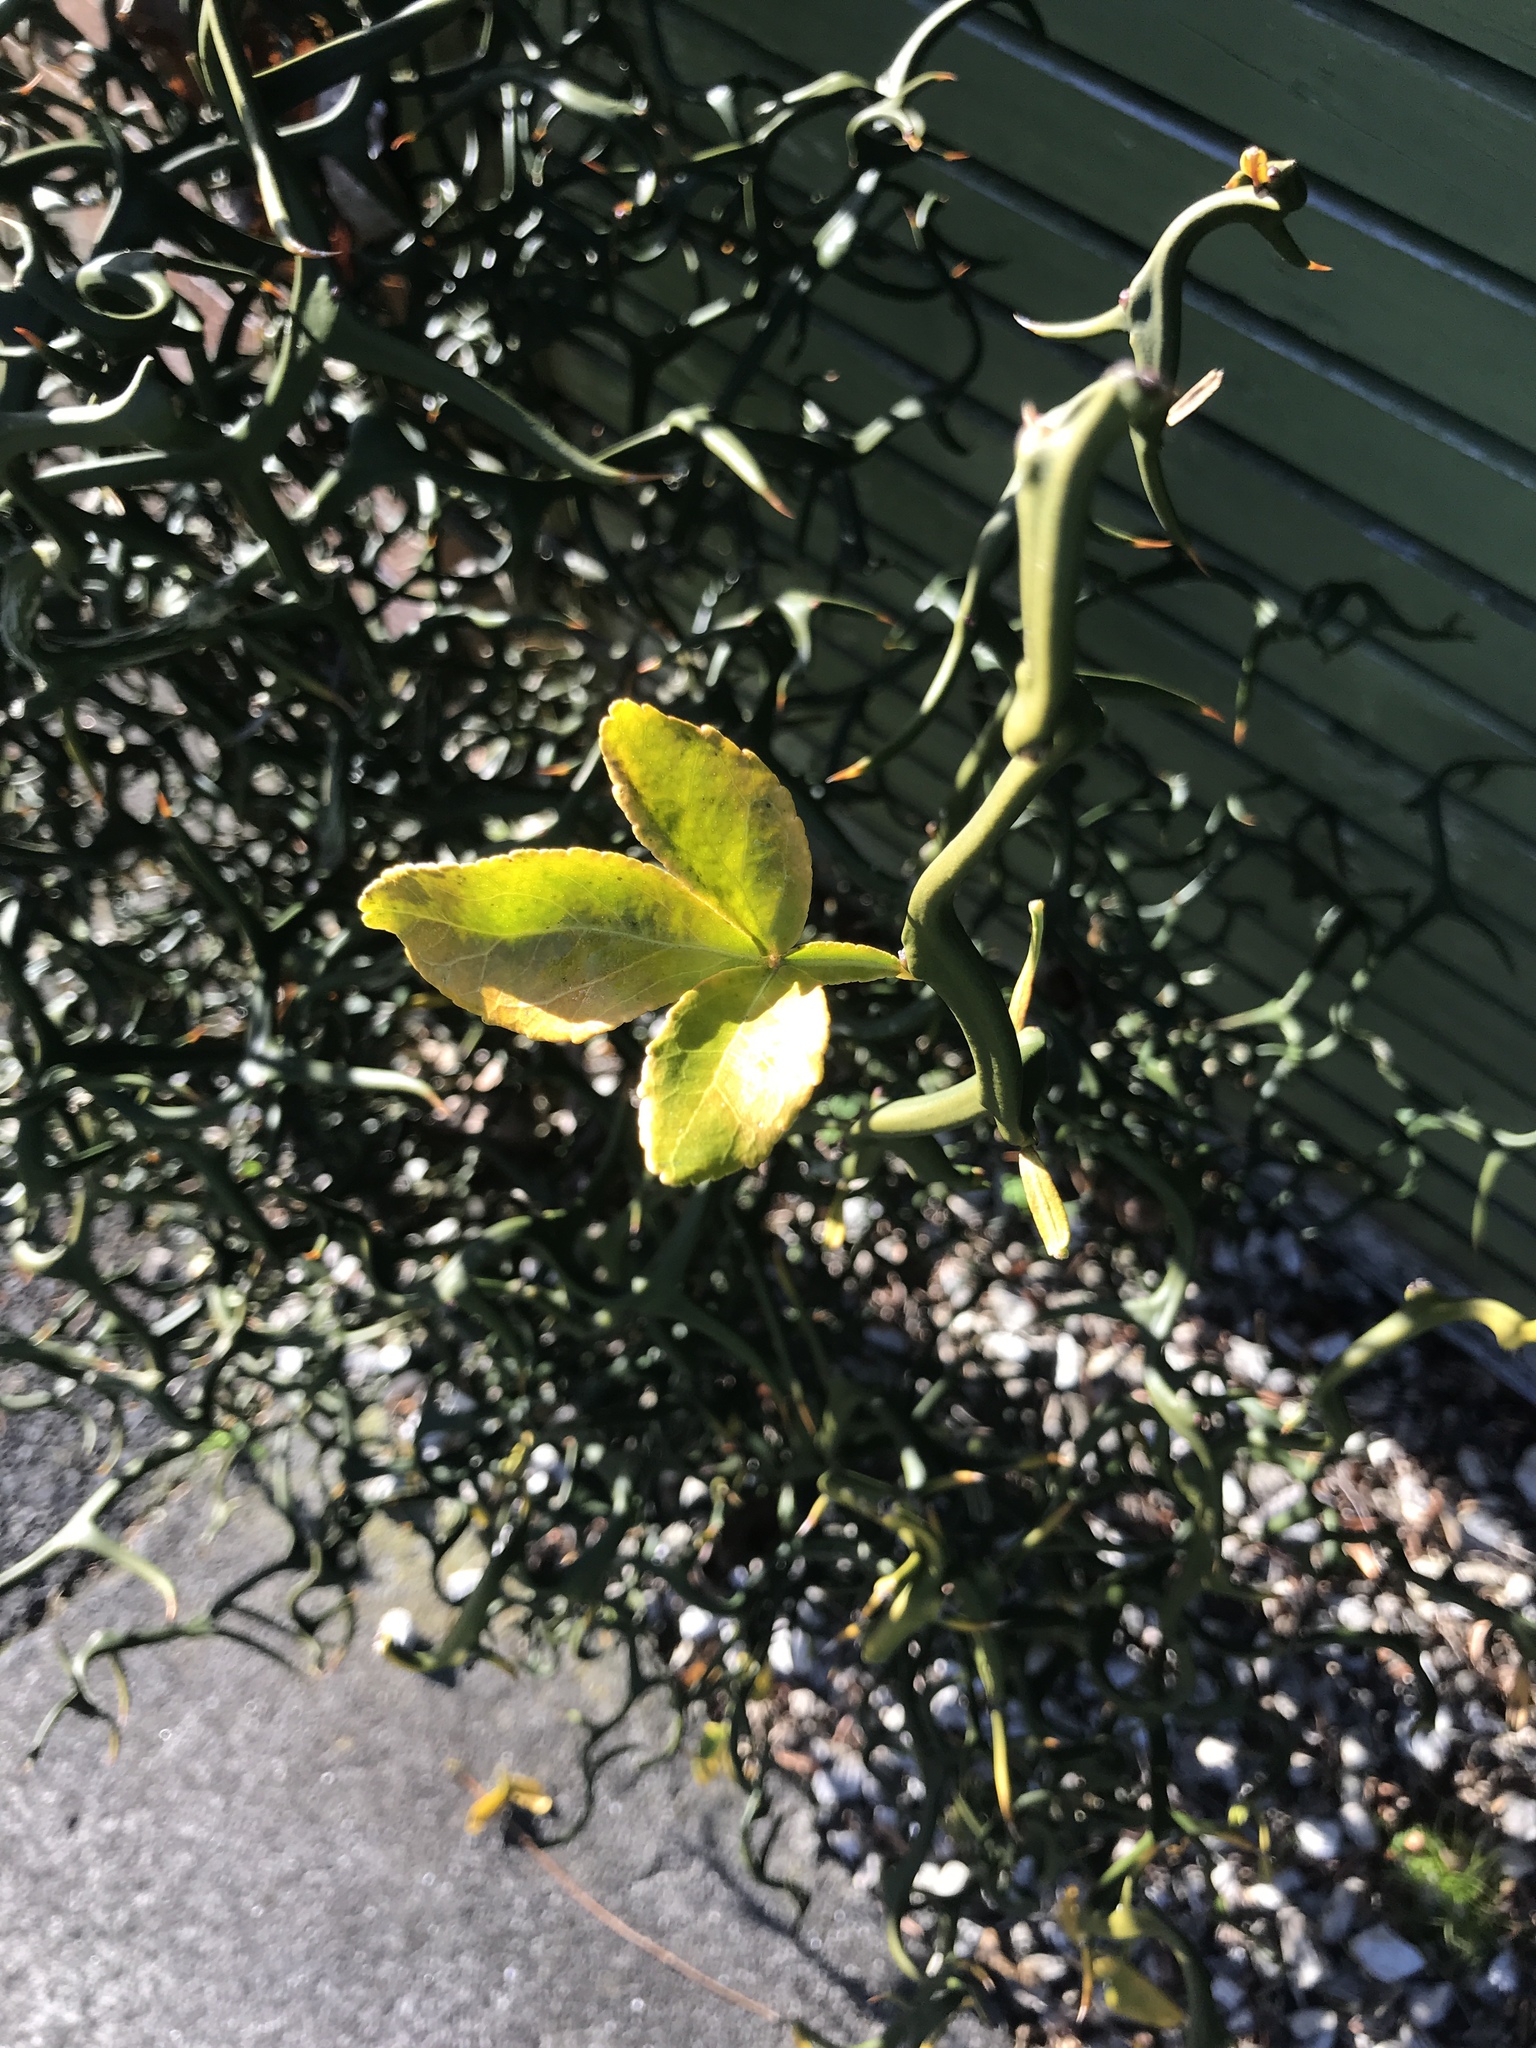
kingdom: Plantae
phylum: Tracheophyta
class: Magnoliopsida
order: Sapindales
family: Rutaceae
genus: Citrus
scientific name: Citrus trifoliata
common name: Japanese bitter-orange
